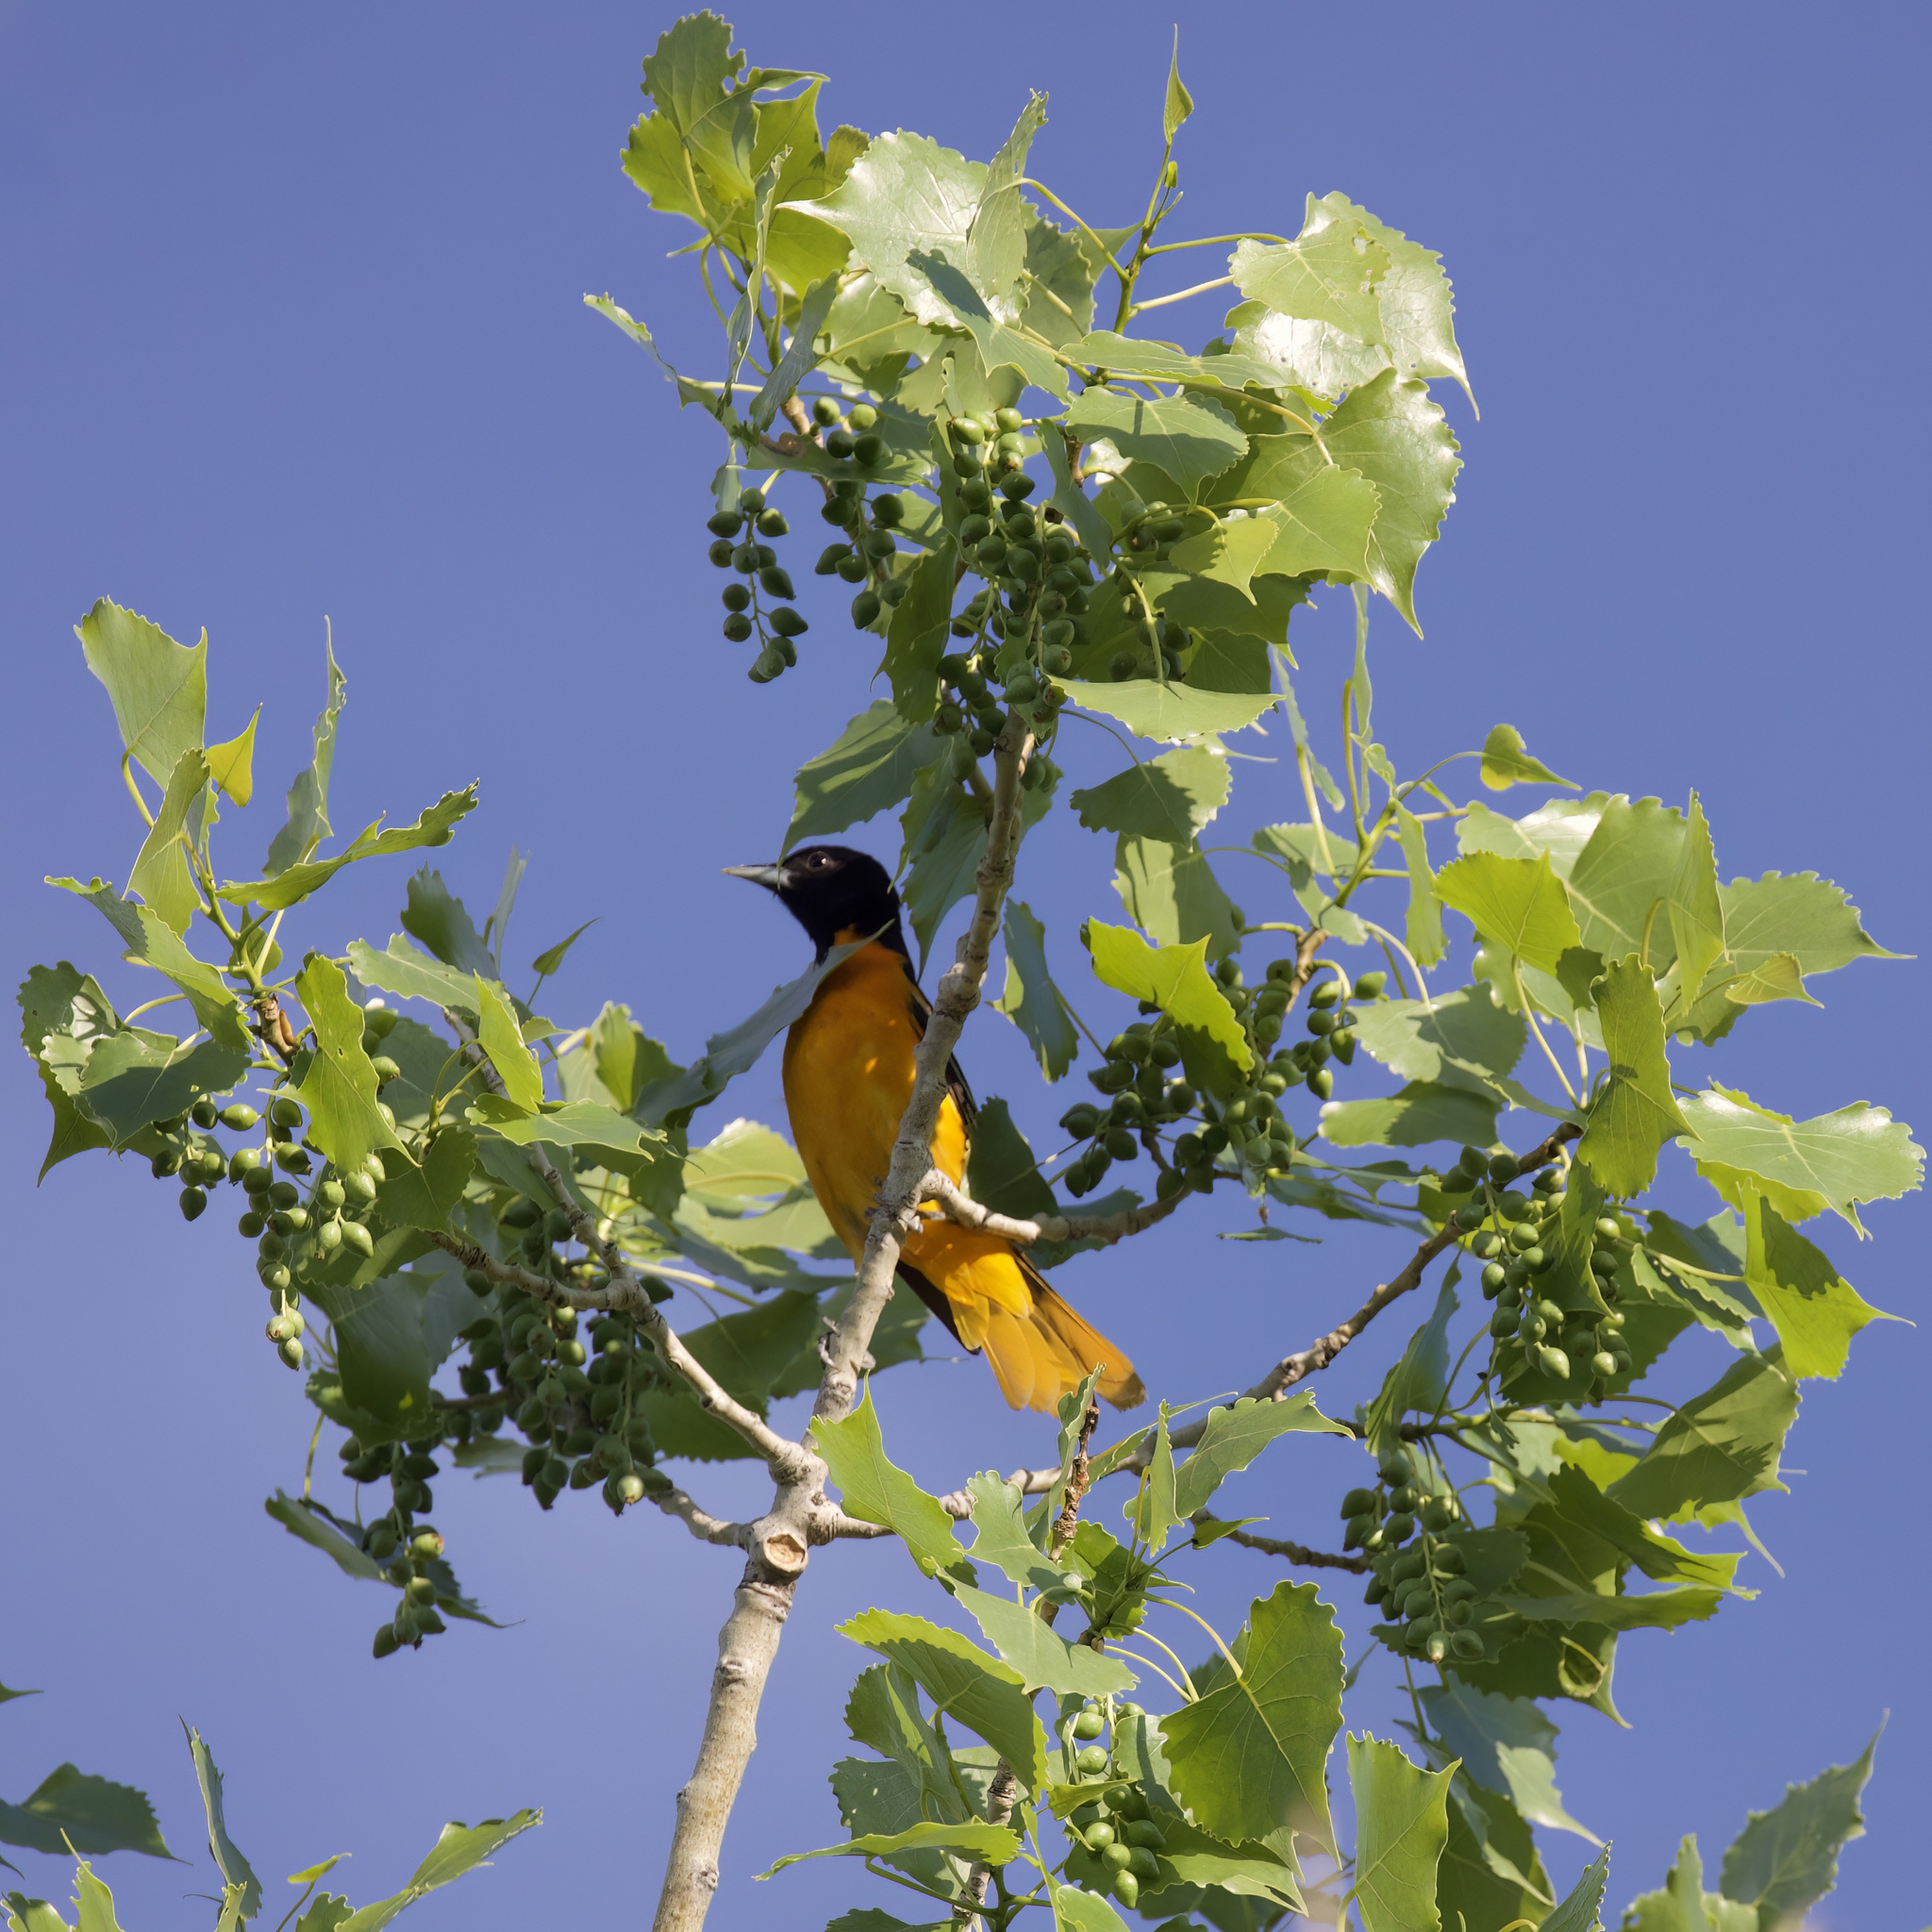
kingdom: Animalia
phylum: Chordata
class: Aves
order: Passeriformes
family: Icteridae
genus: Icterus
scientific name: Icterus galbula
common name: Baltimore oriole
